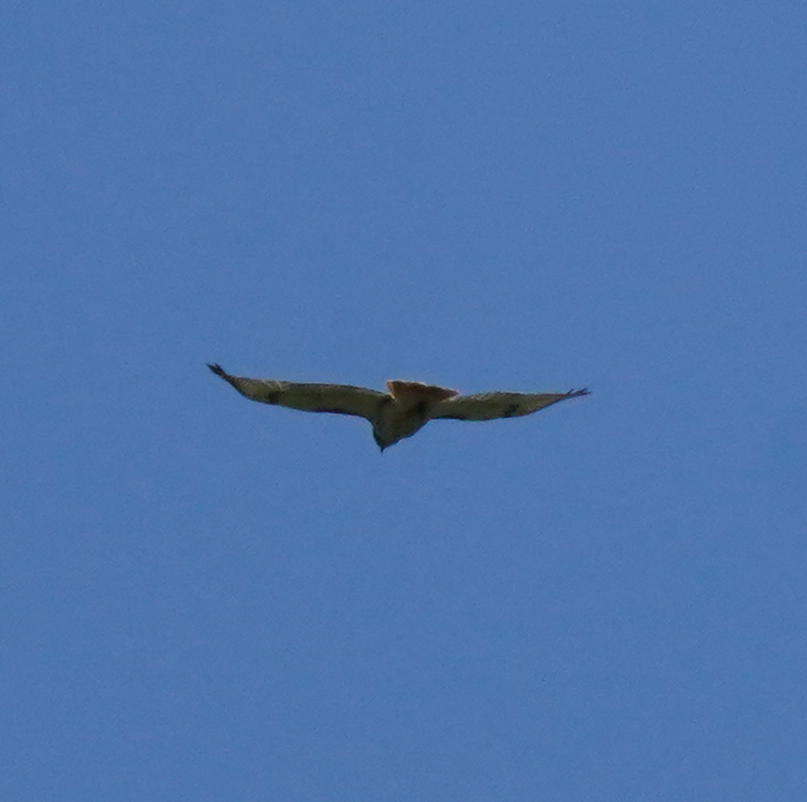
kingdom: Animalia
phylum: Chordata
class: Aves
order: Accipitriformes
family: Accipitridae
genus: Buteo
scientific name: Buteo jamaicensis
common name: Red-tailed hawk
